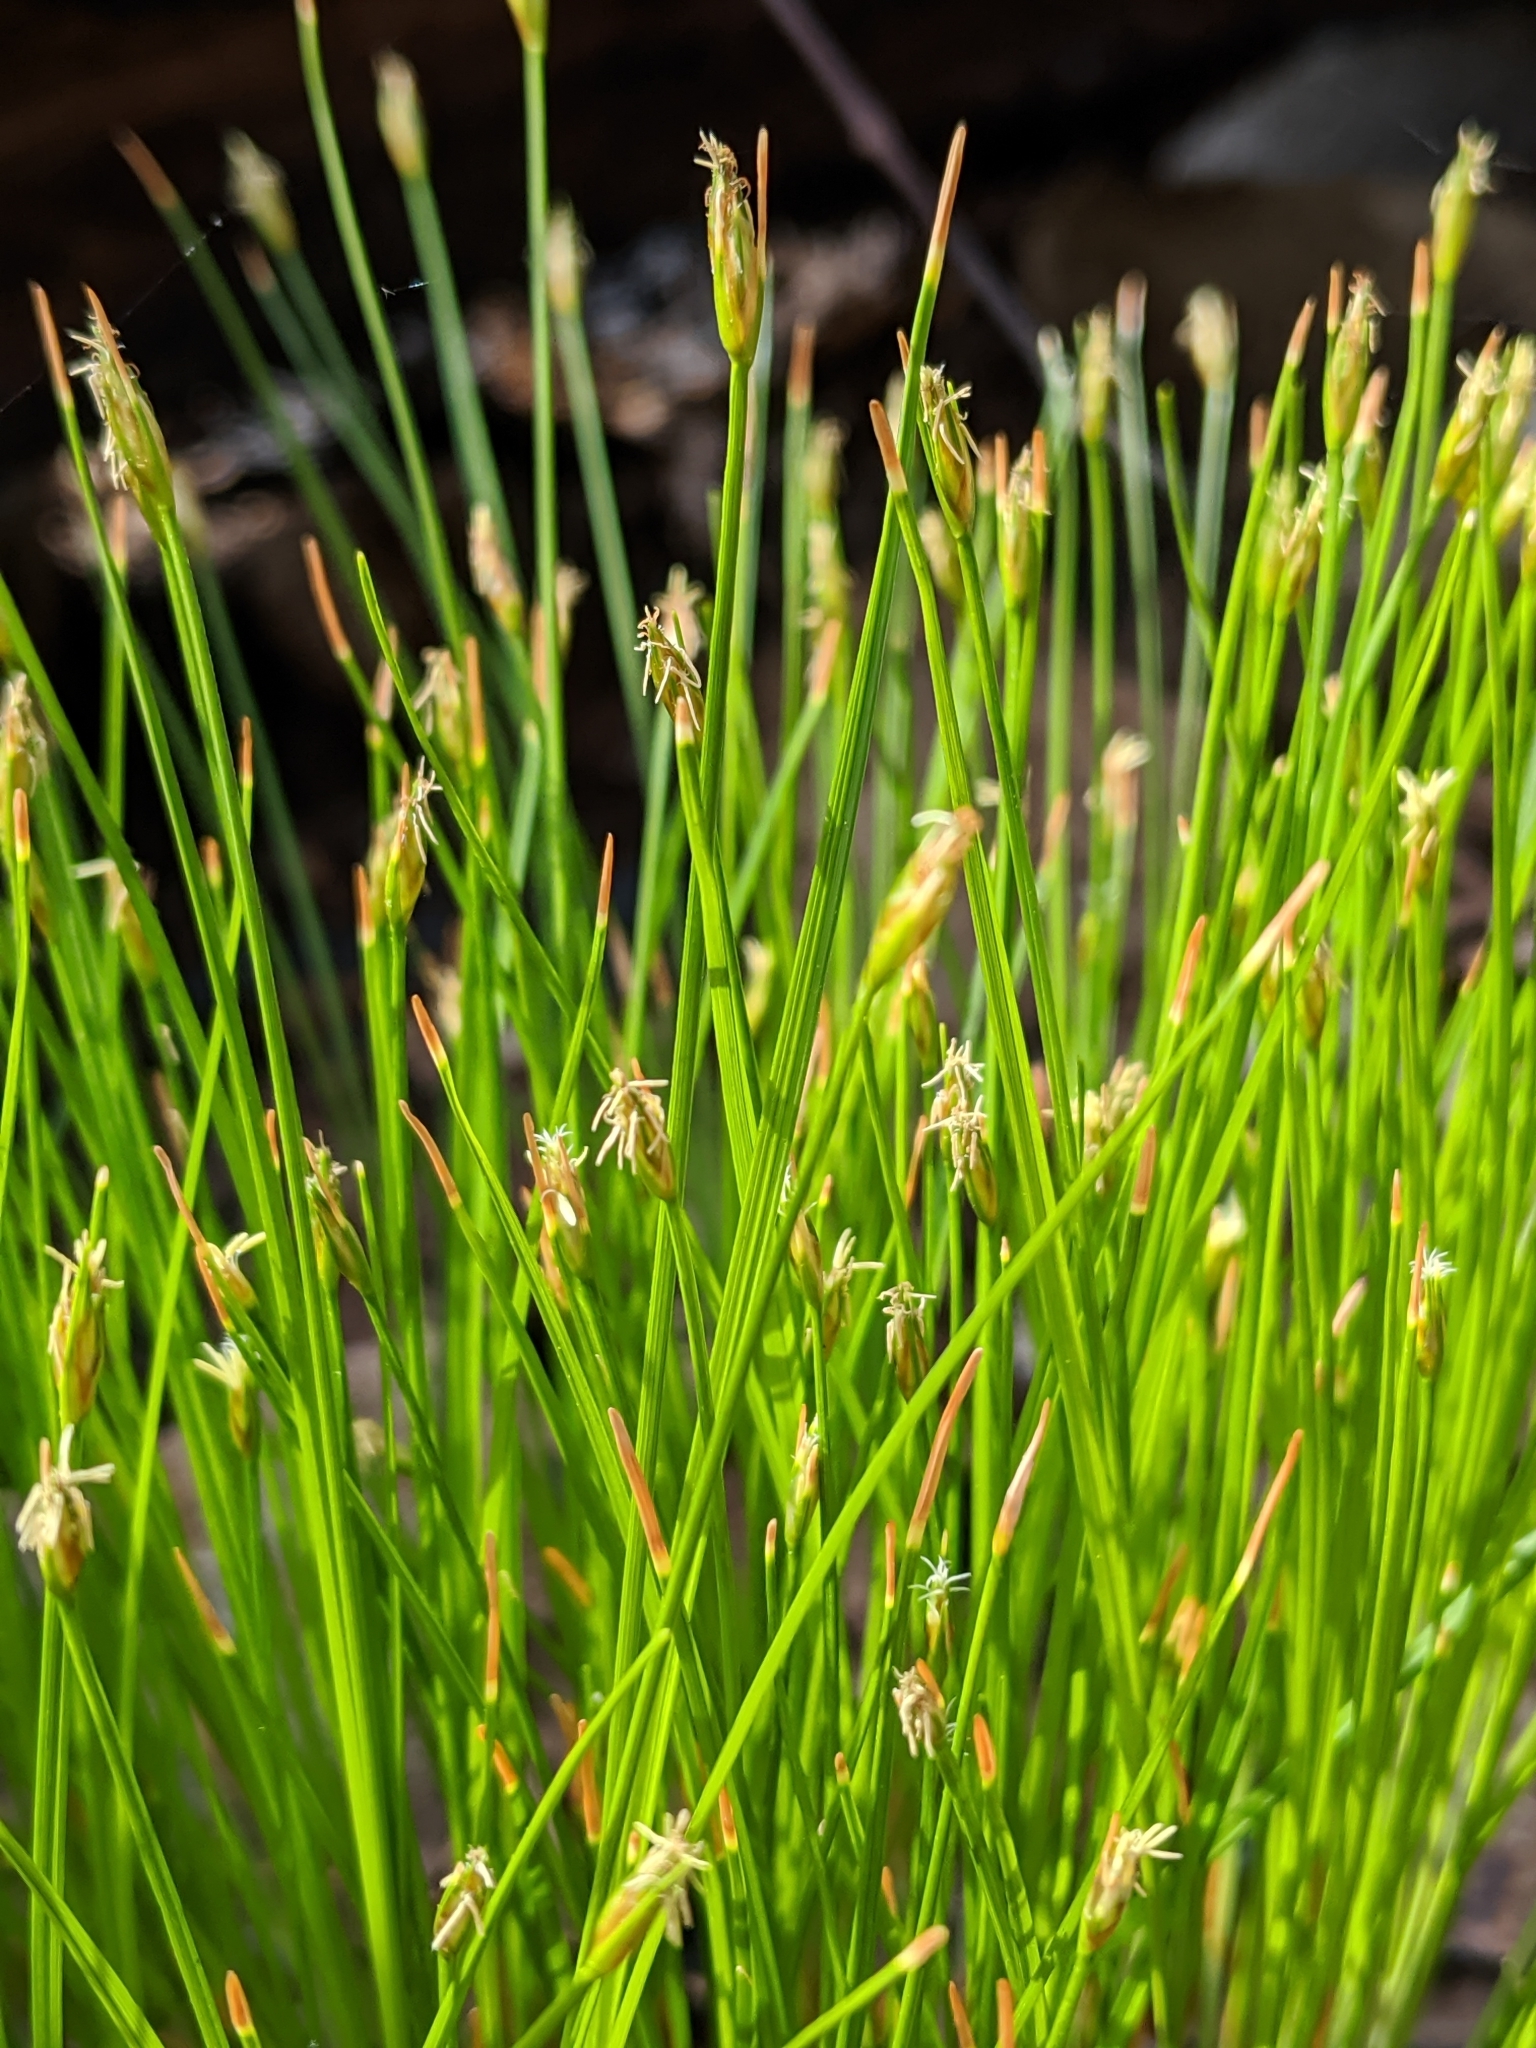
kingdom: Plantae
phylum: Tracheophyta
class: Liliopsida
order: Poales
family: Cyperaceae
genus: Trichophorum
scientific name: Trichophorum planifolium
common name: Bashful bulrush
